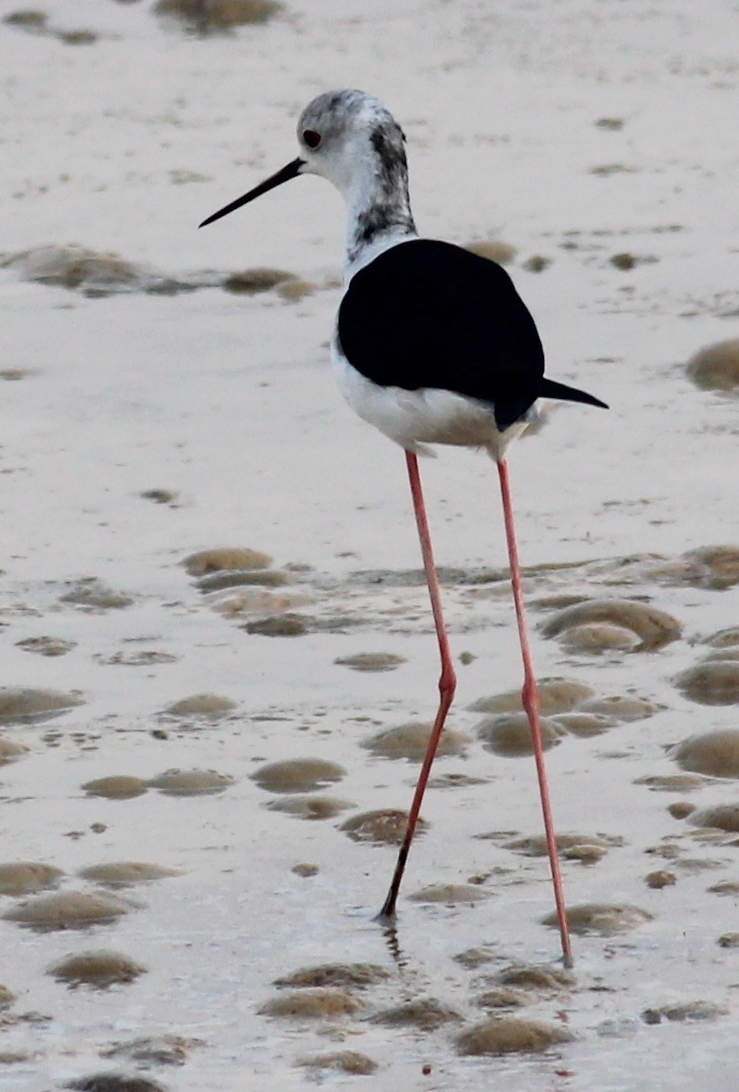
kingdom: Animalia
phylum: Chordata
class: Aves
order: Charadriiformes
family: Recurvirostridae
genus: Himantopus
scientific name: Himantopus himantopus
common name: Black-winged stilt
